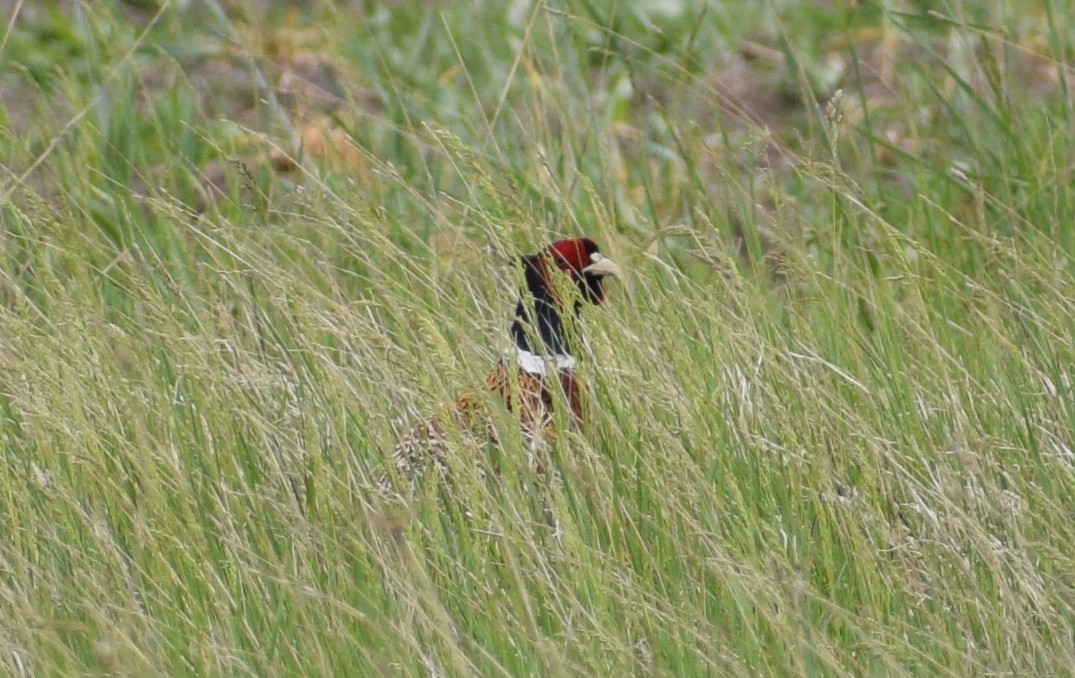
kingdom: Animalia
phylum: Chordata
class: Aves
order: Galliformes
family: Phasianidae
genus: Phasianus
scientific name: Phasianus colchicus
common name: Common pheasant
